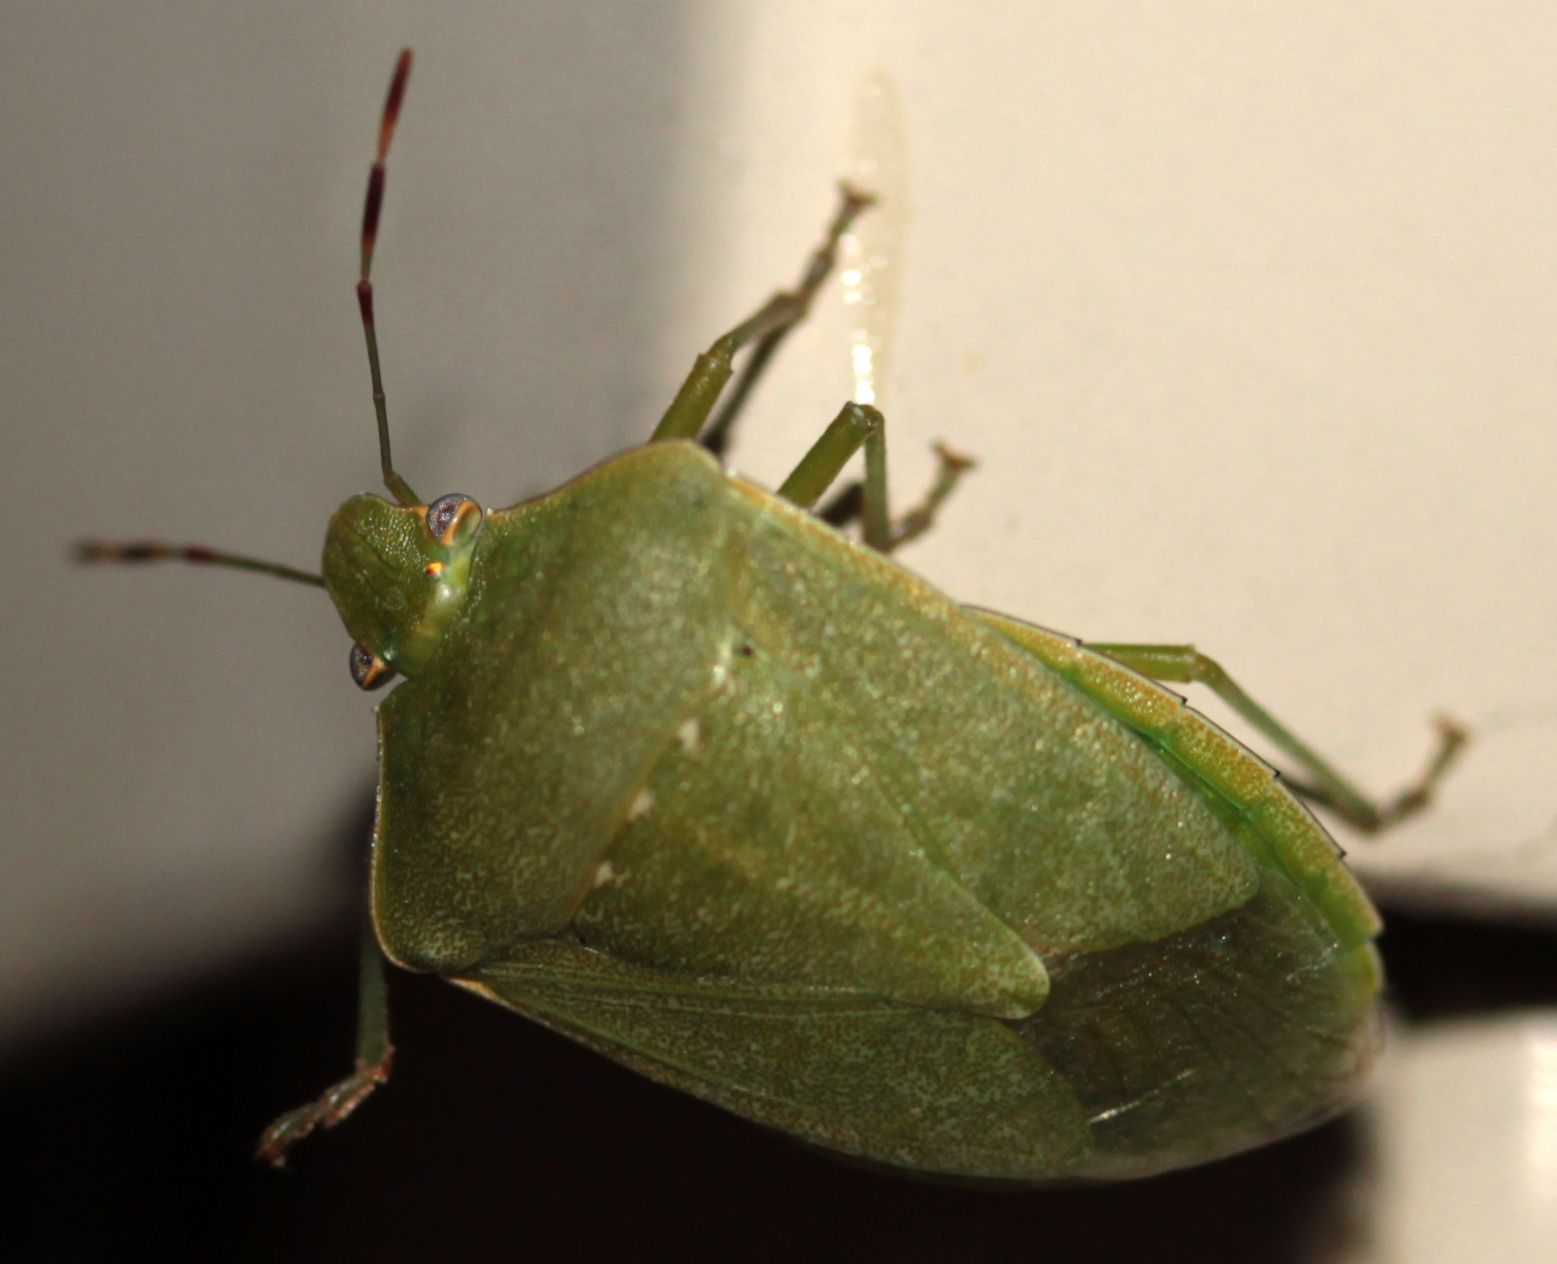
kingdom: Animalia
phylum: Arthropoda
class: Insecta
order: Hemiptera
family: Pentatomidae
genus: Nezara
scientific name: Nezara viridula
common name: Southern green stink bug
